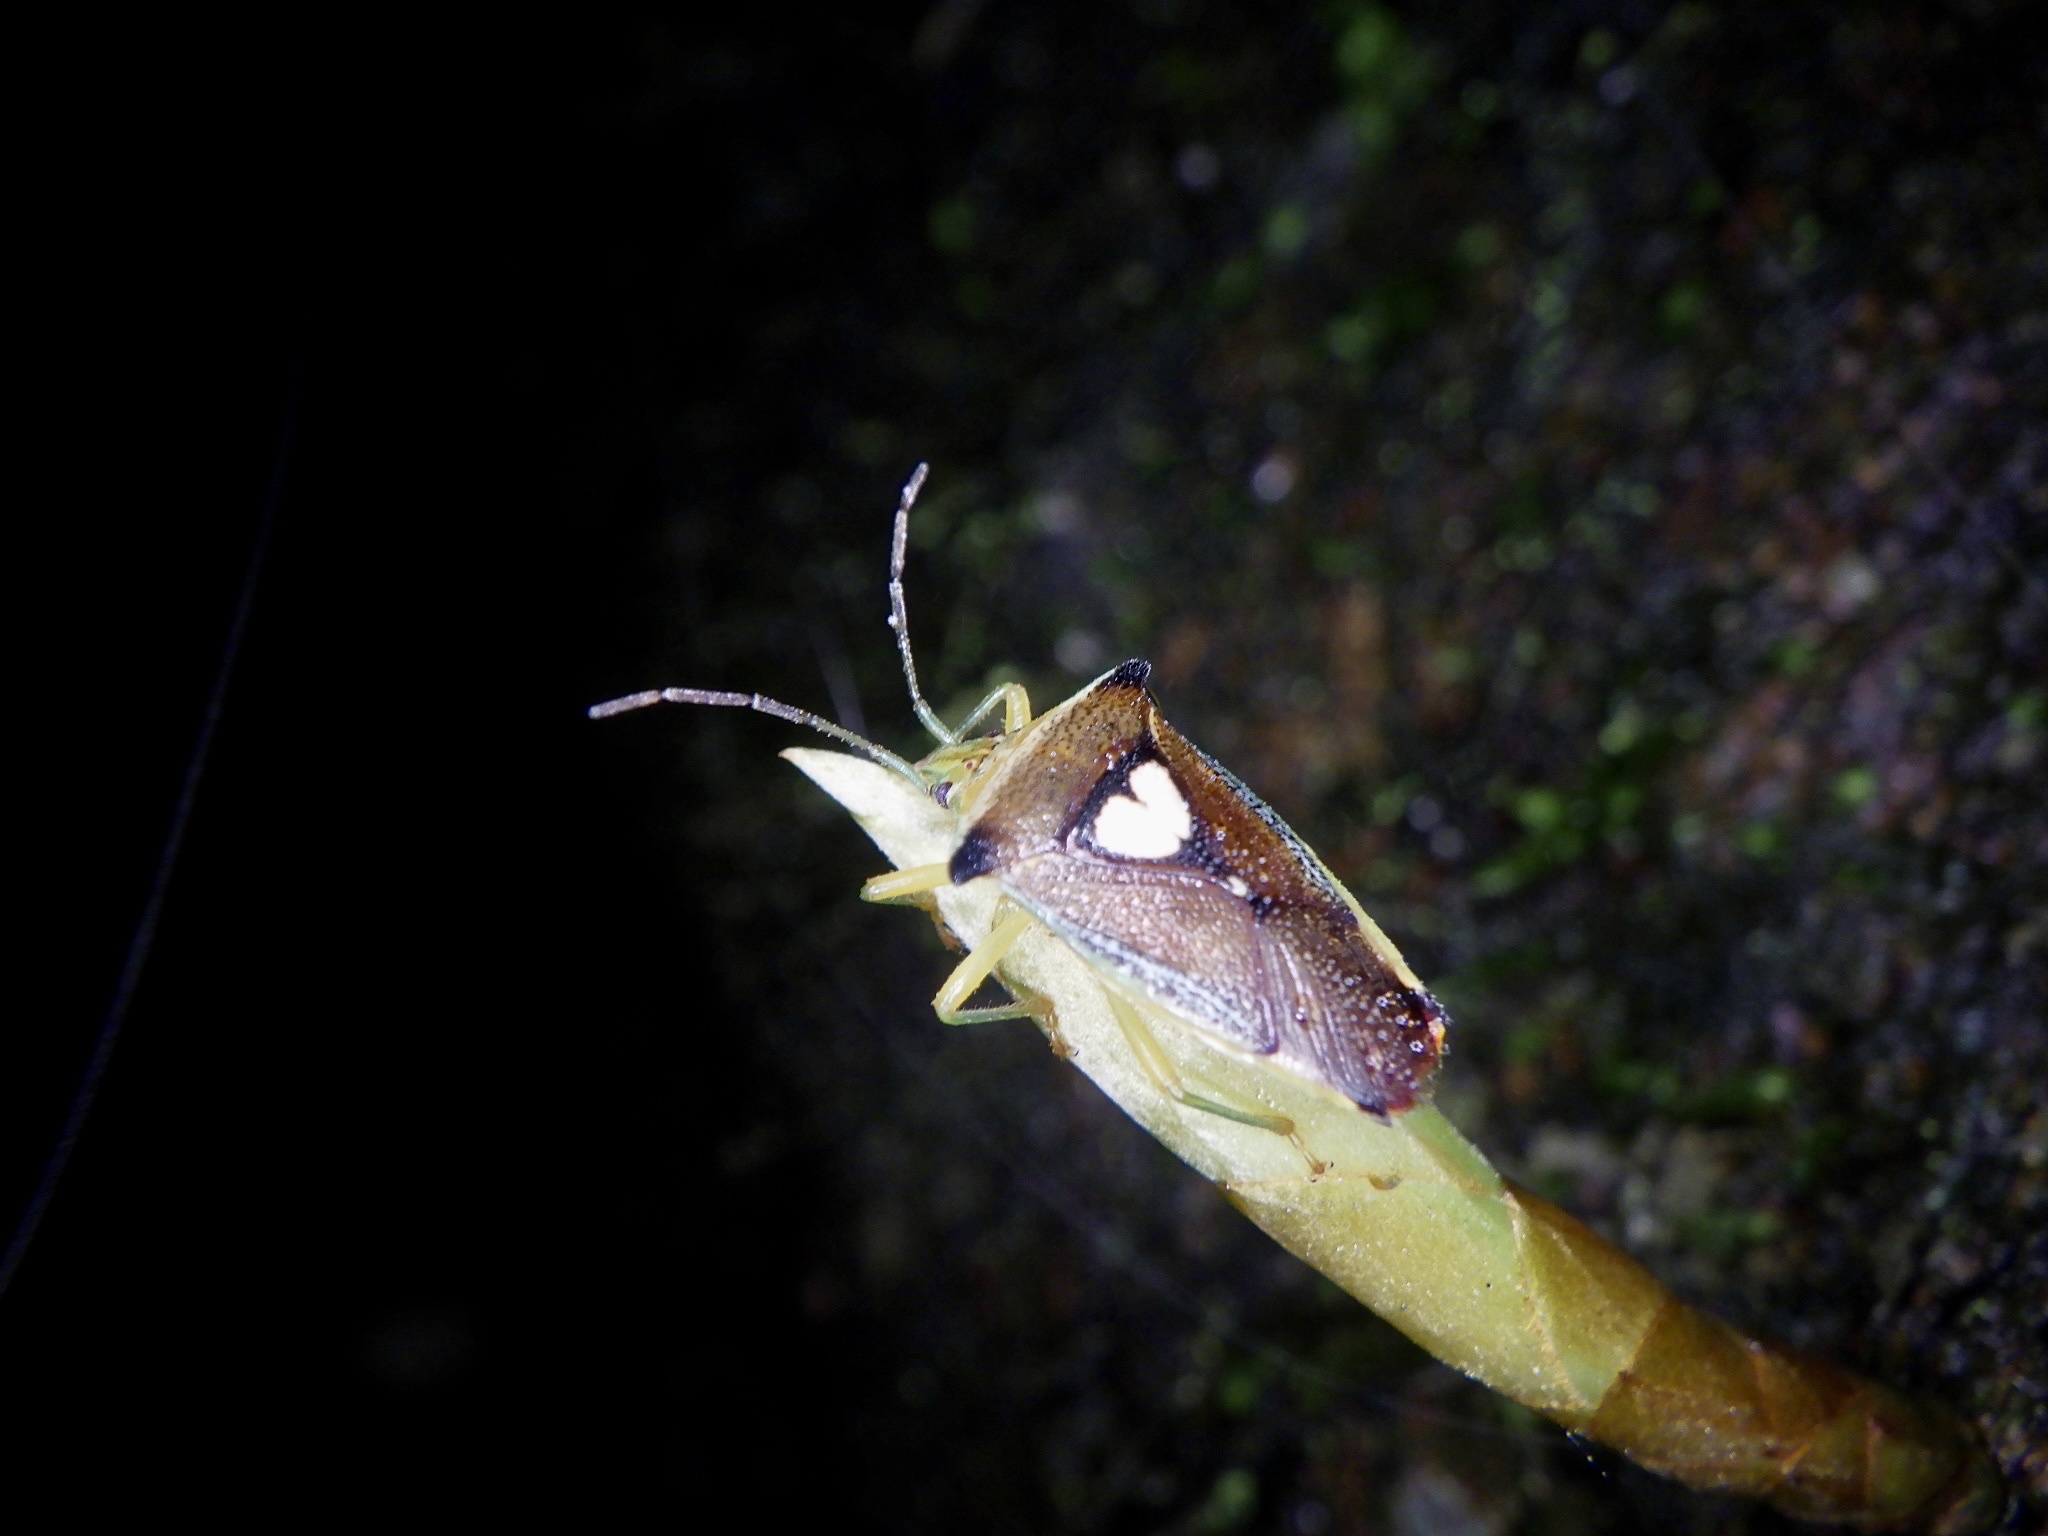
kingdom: Animalia
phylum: Arthropoda
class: Insecta
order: Hemiptera
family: Acanthosomatidae
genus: Sastragala
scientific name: Sastragala esakii
